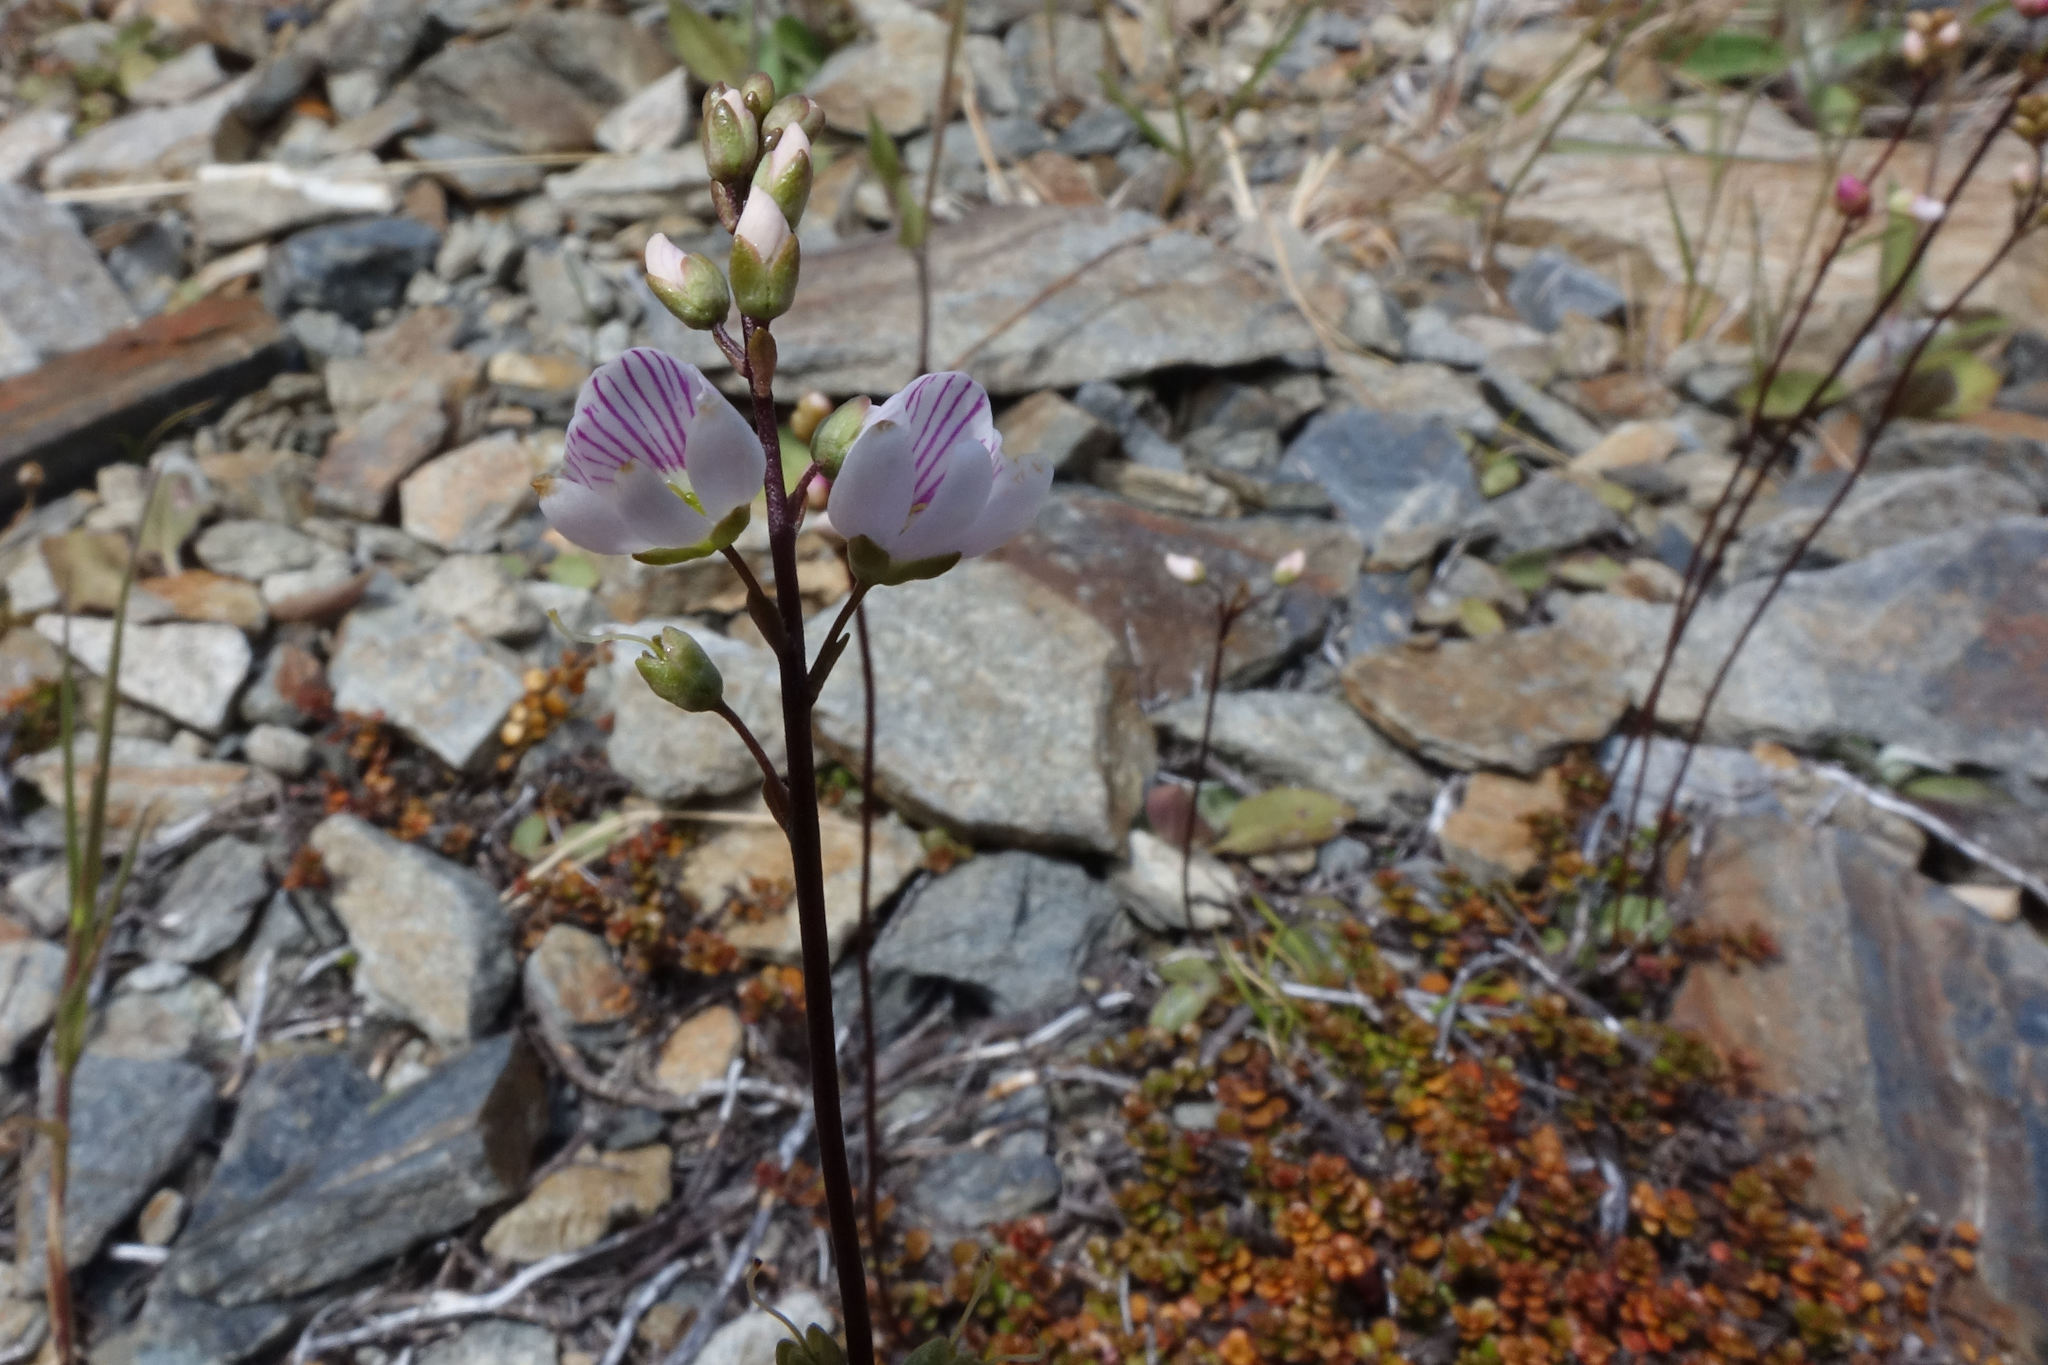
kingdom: Plantae
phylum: Tracheophyta
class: Magnoliopsida
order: Lamiales
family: Plantaginaceae
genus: Veronica
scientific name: Veronica decora
